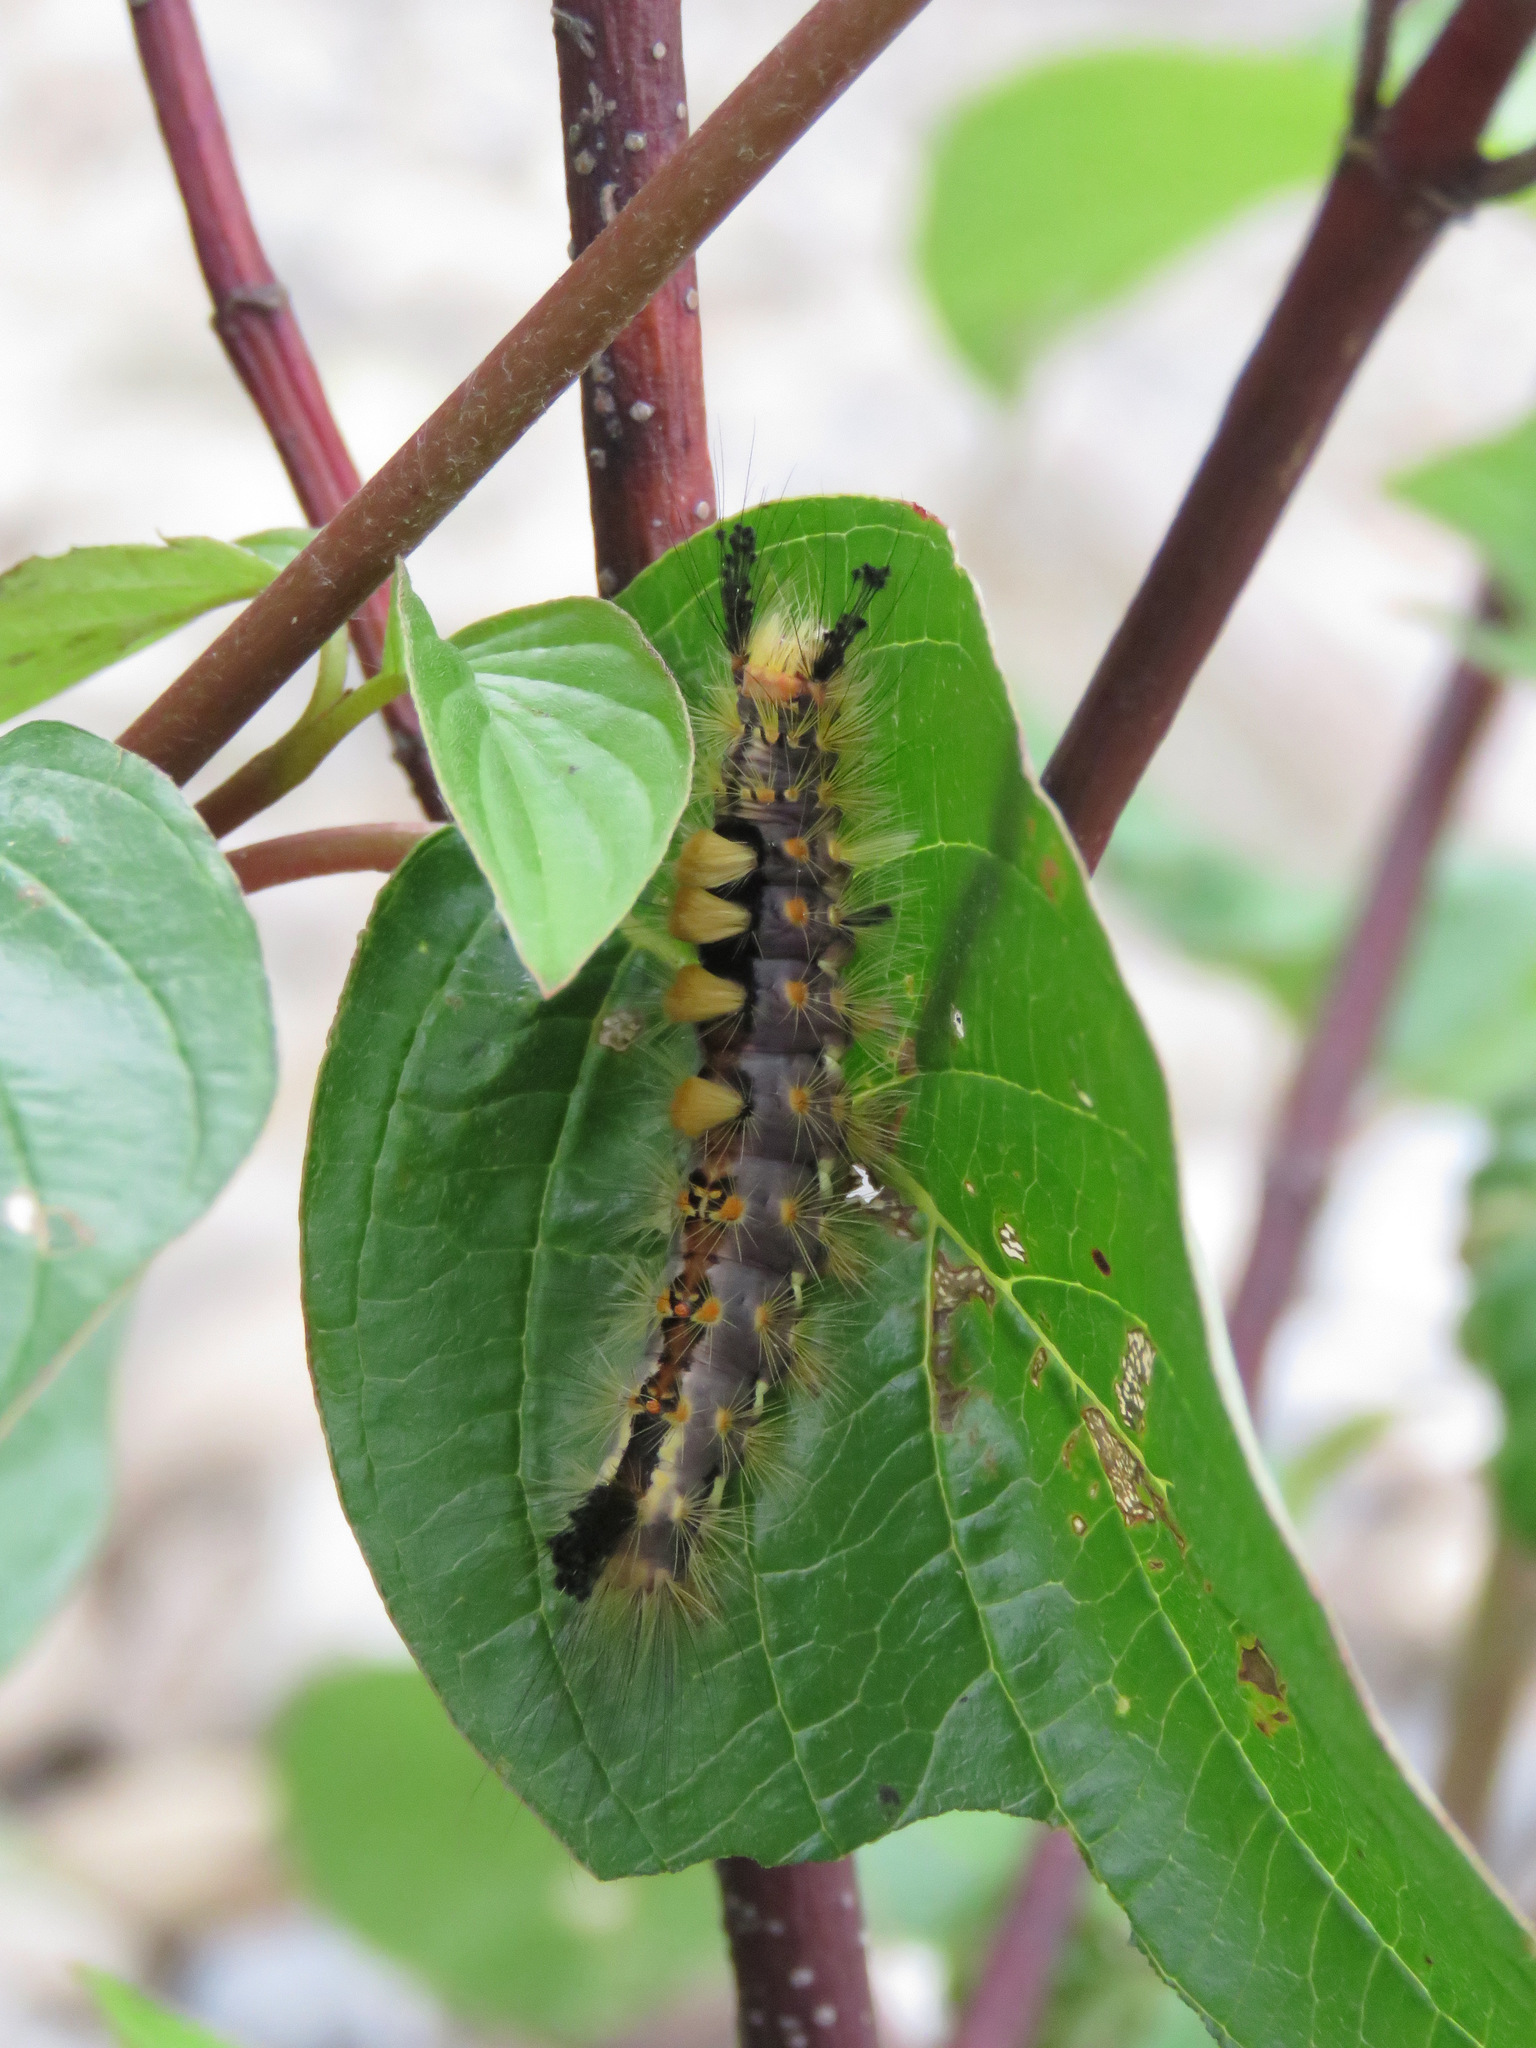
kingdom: Animalia
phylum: Arthropoda
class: Insecta
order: Lepidoptera
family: Erebidae
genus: Orgyia
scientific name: Orgyia antiqua
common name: Vapourer
